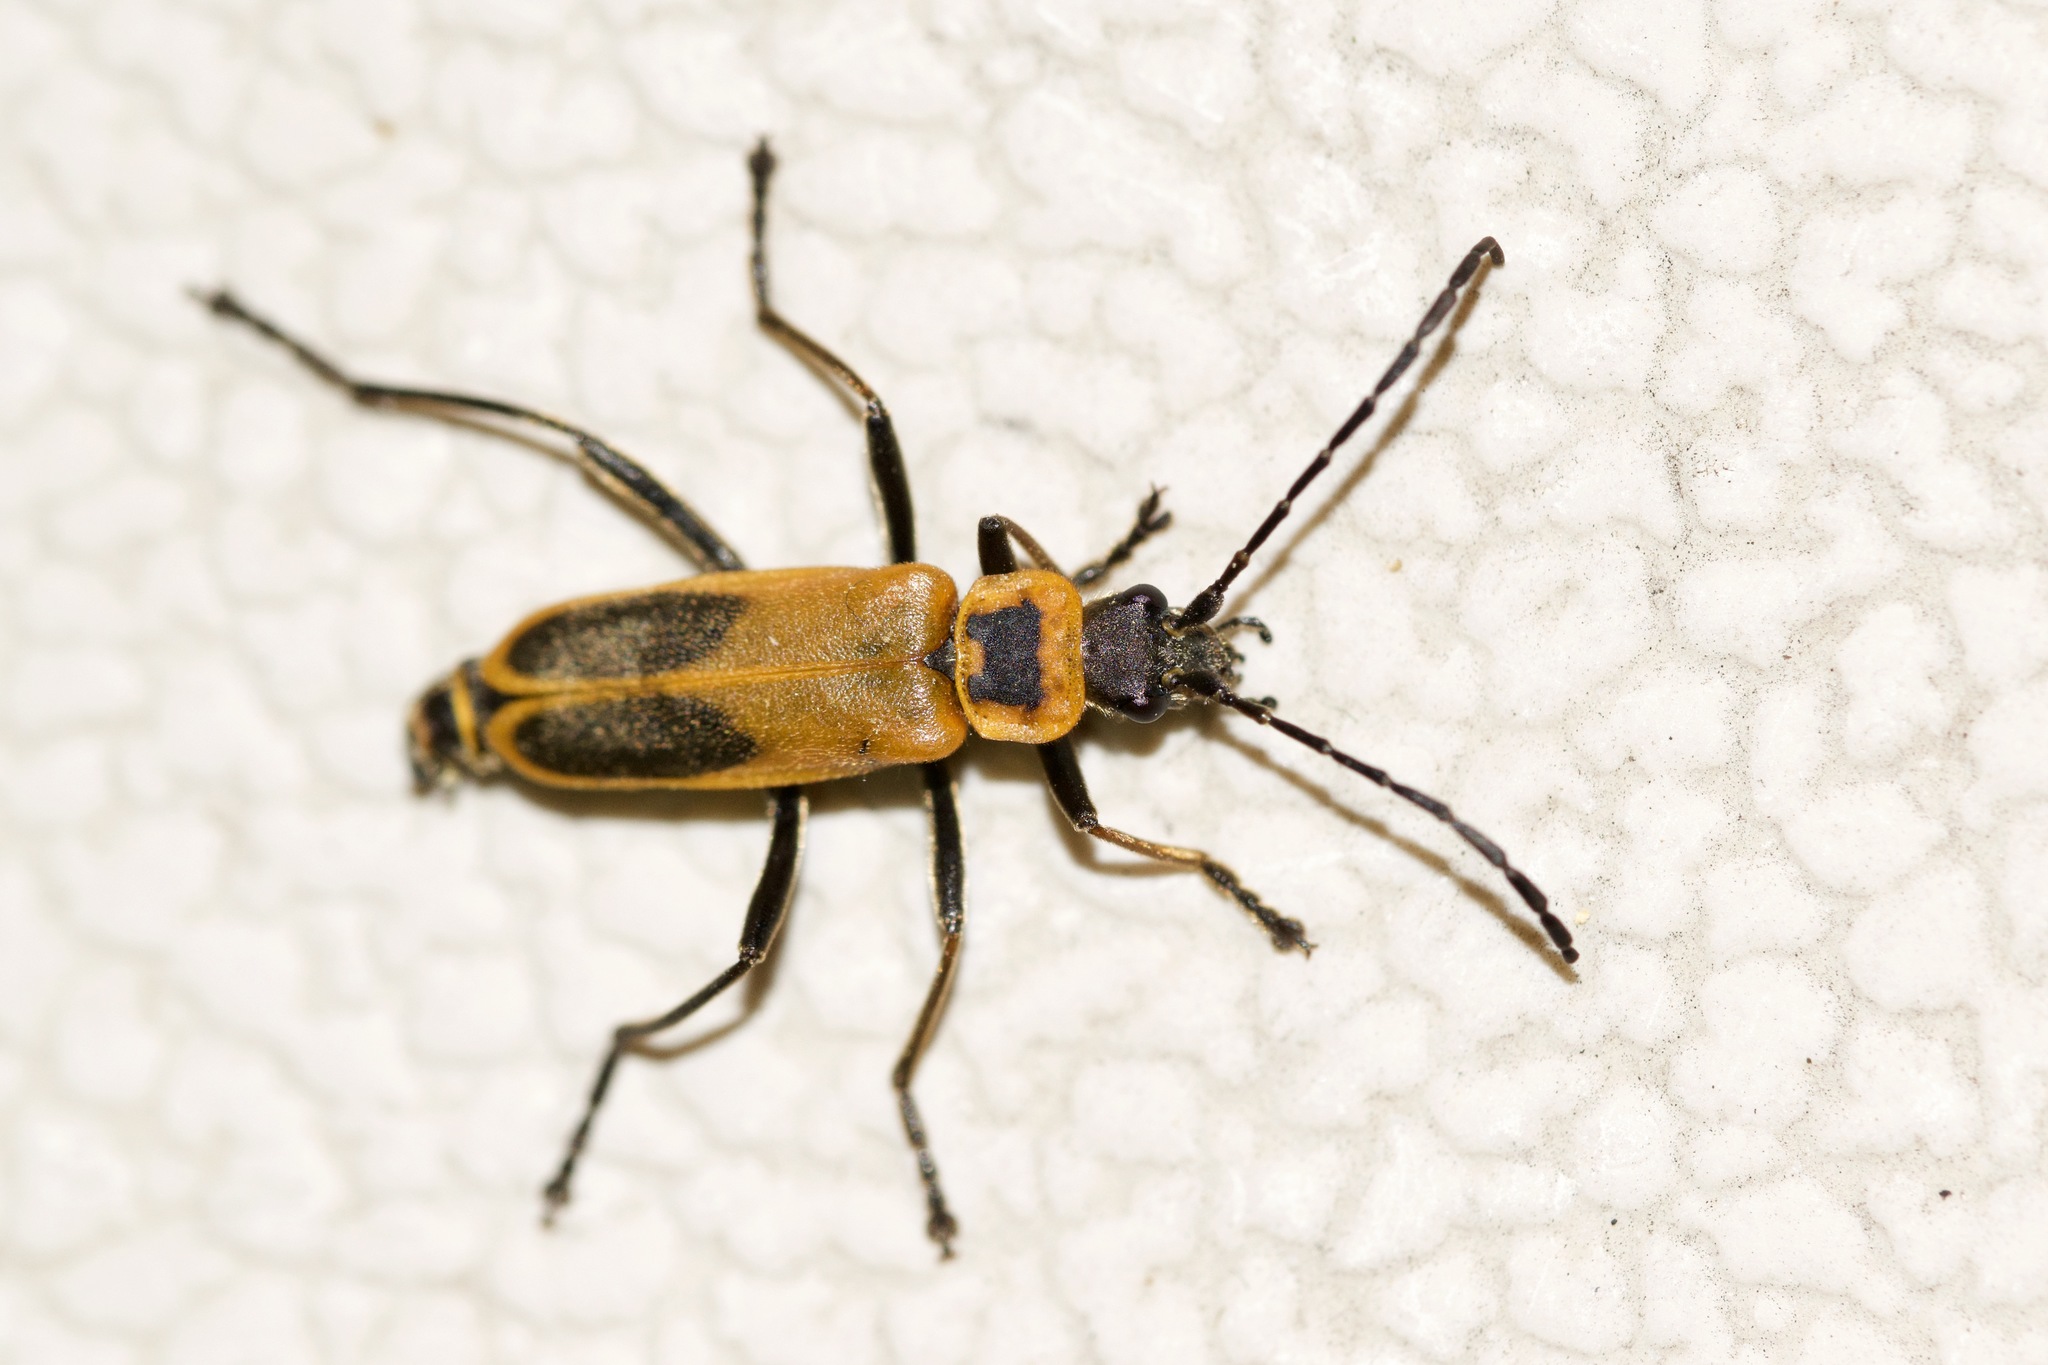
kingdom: Animalia
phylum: Arthropoda
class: Insecta
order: Coleoptera
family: Cantharidae
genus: Chauliognathus
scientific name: Chauliognathus pensylvanicus
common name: Goldenrod soldier beetle
